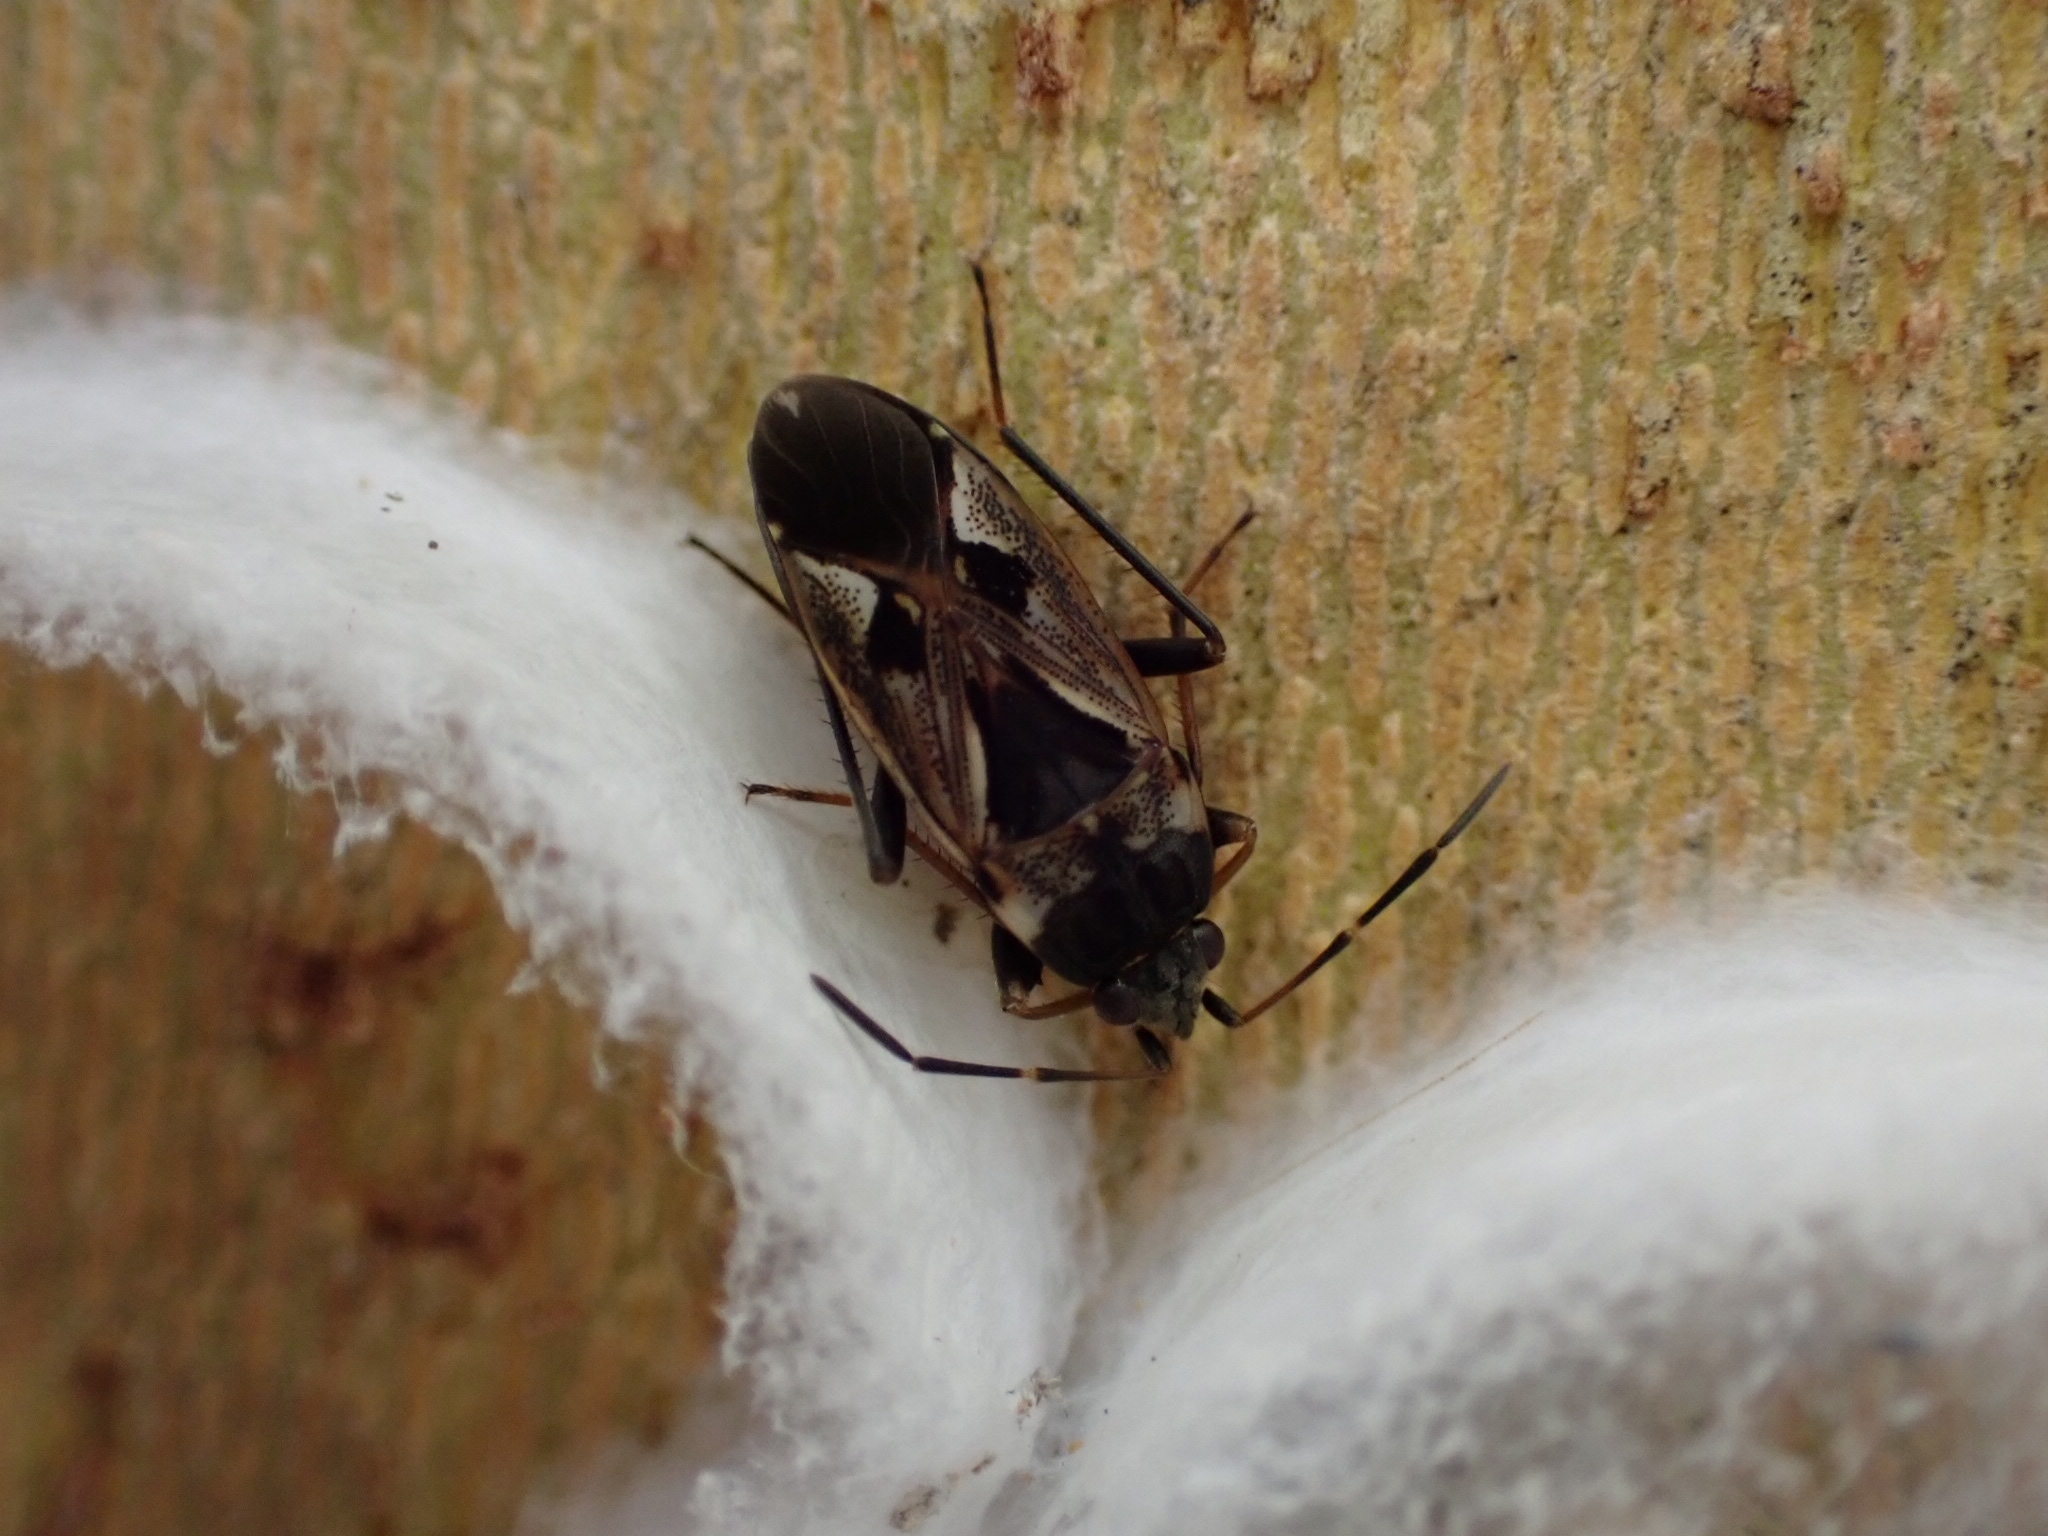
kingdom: Animalia
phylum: Arthropoda
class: Insecta
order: Hemiptera
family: Rhyparochromidae
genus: Rhyparochromus
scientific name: Rhyparochromus vulgaris
